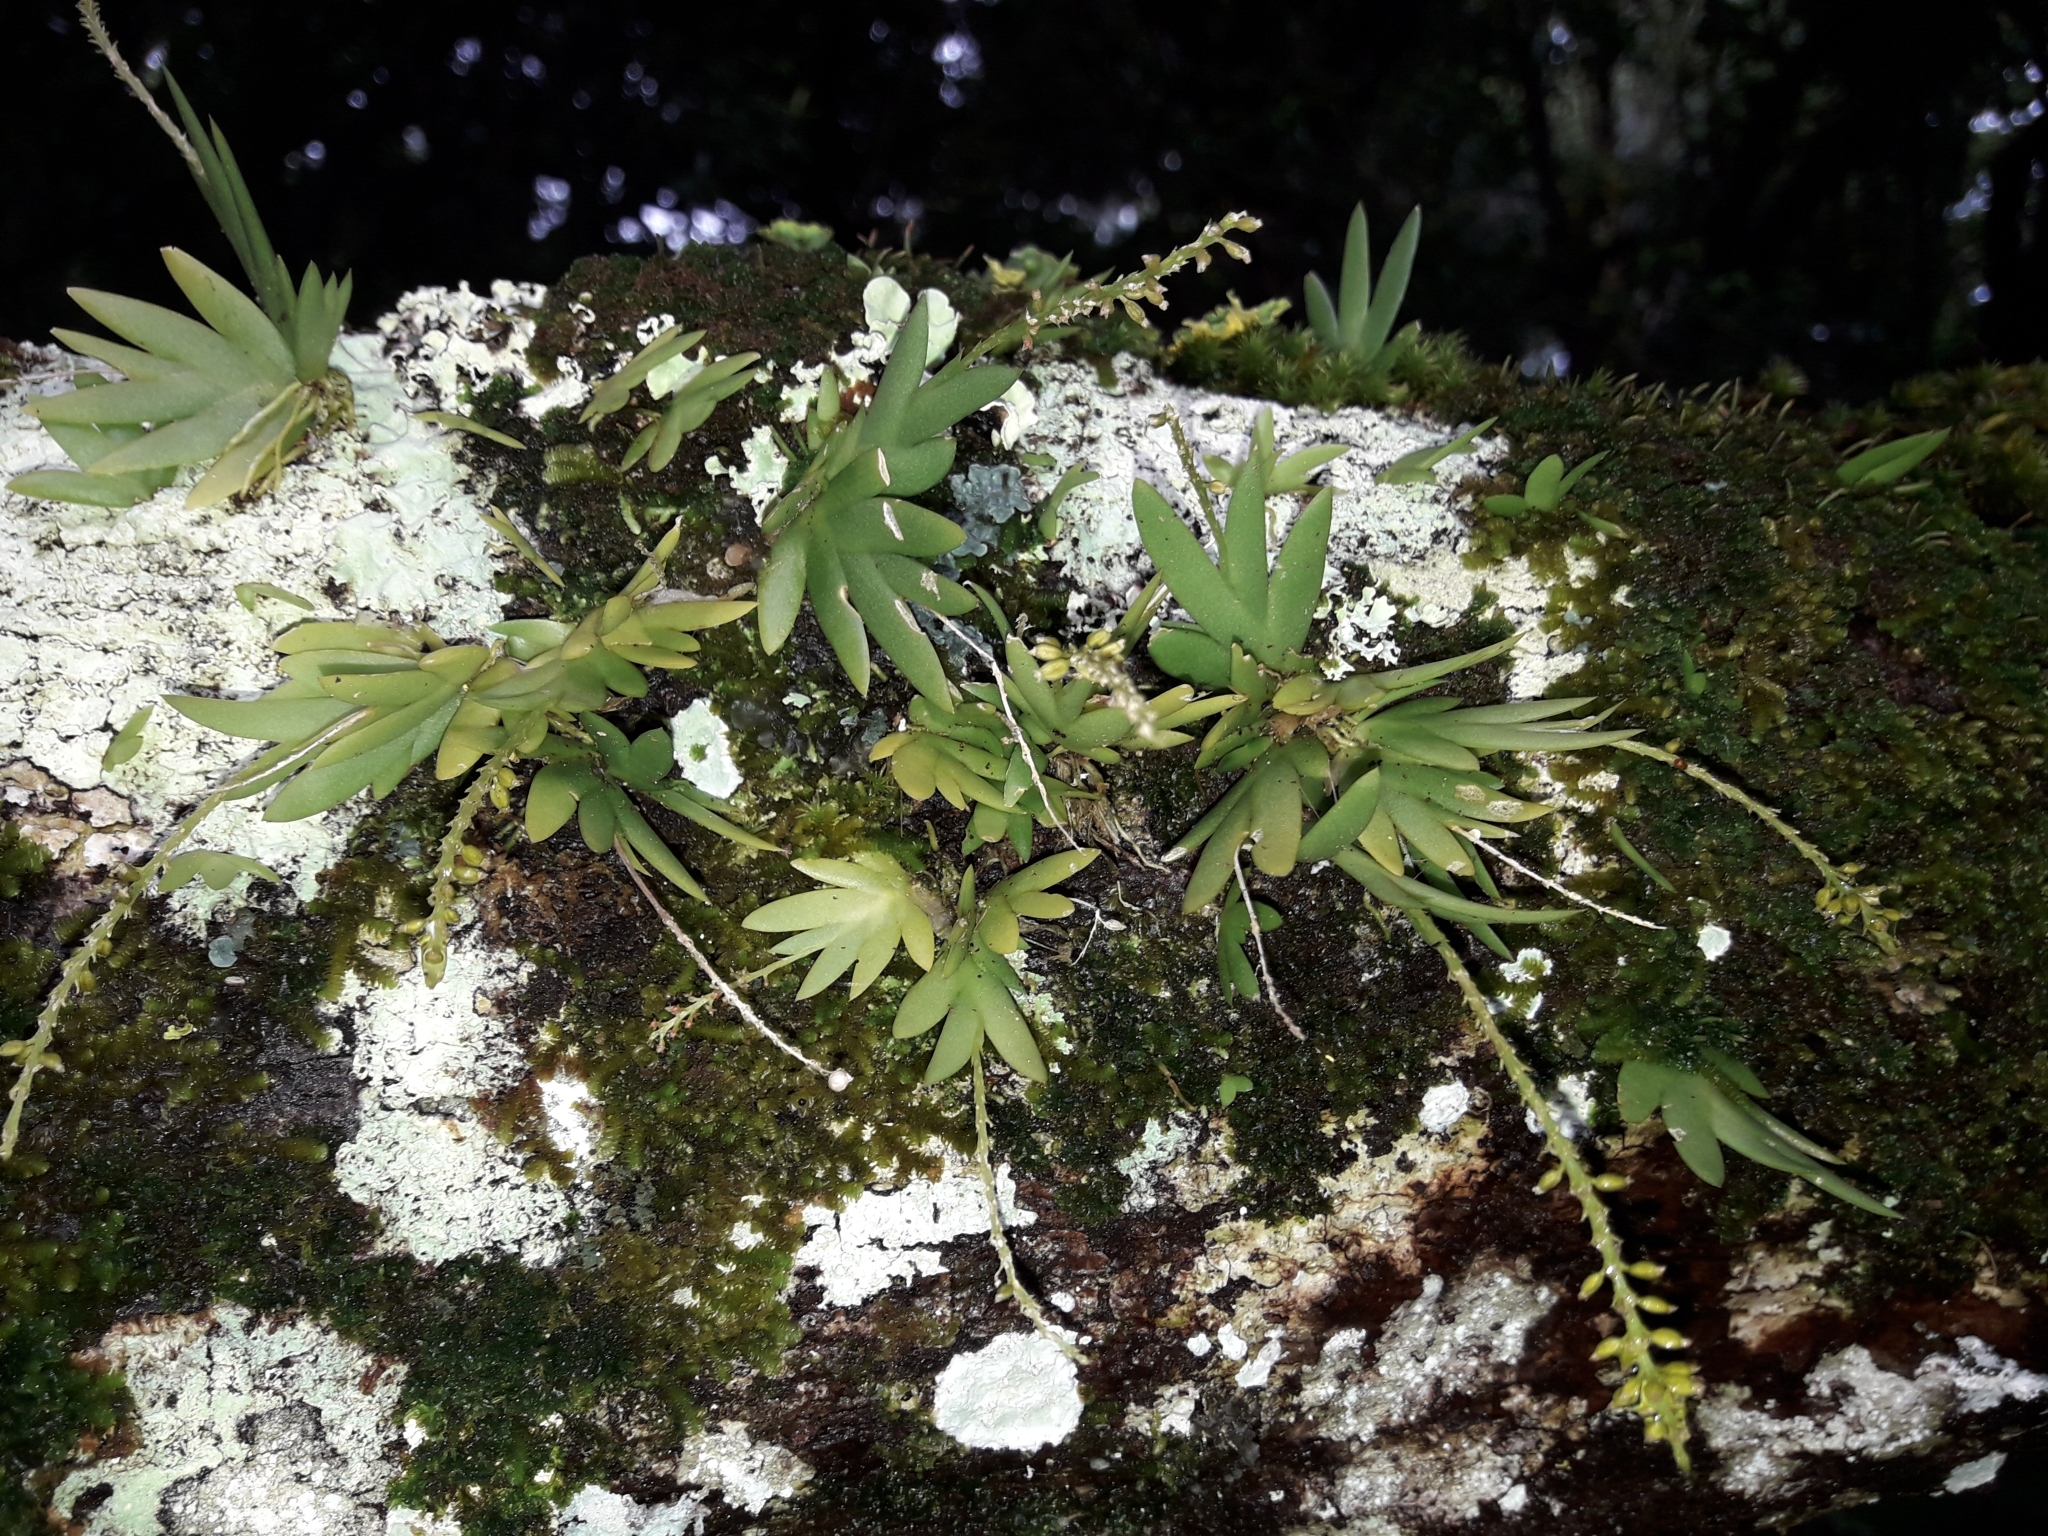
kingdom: Plantae
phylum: Tracheophyta
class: Liliopsida
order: Asparagales
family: Orchidaceae
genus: Oberonia
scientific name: Oberonia titania
